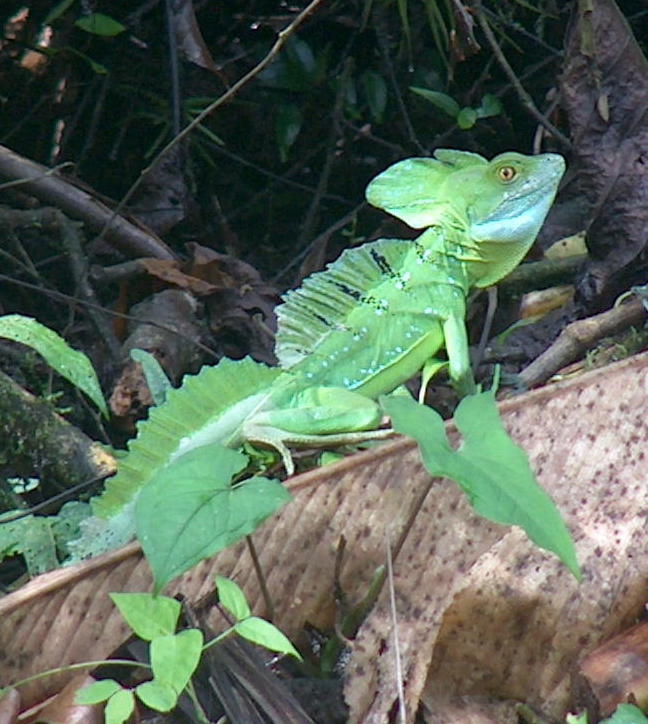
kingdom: Animalia
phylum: Chordata
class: Squamata
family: Corytophanidae
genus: Basiliscus
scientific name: Basiliscus plumifrons
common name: Green basilisk
